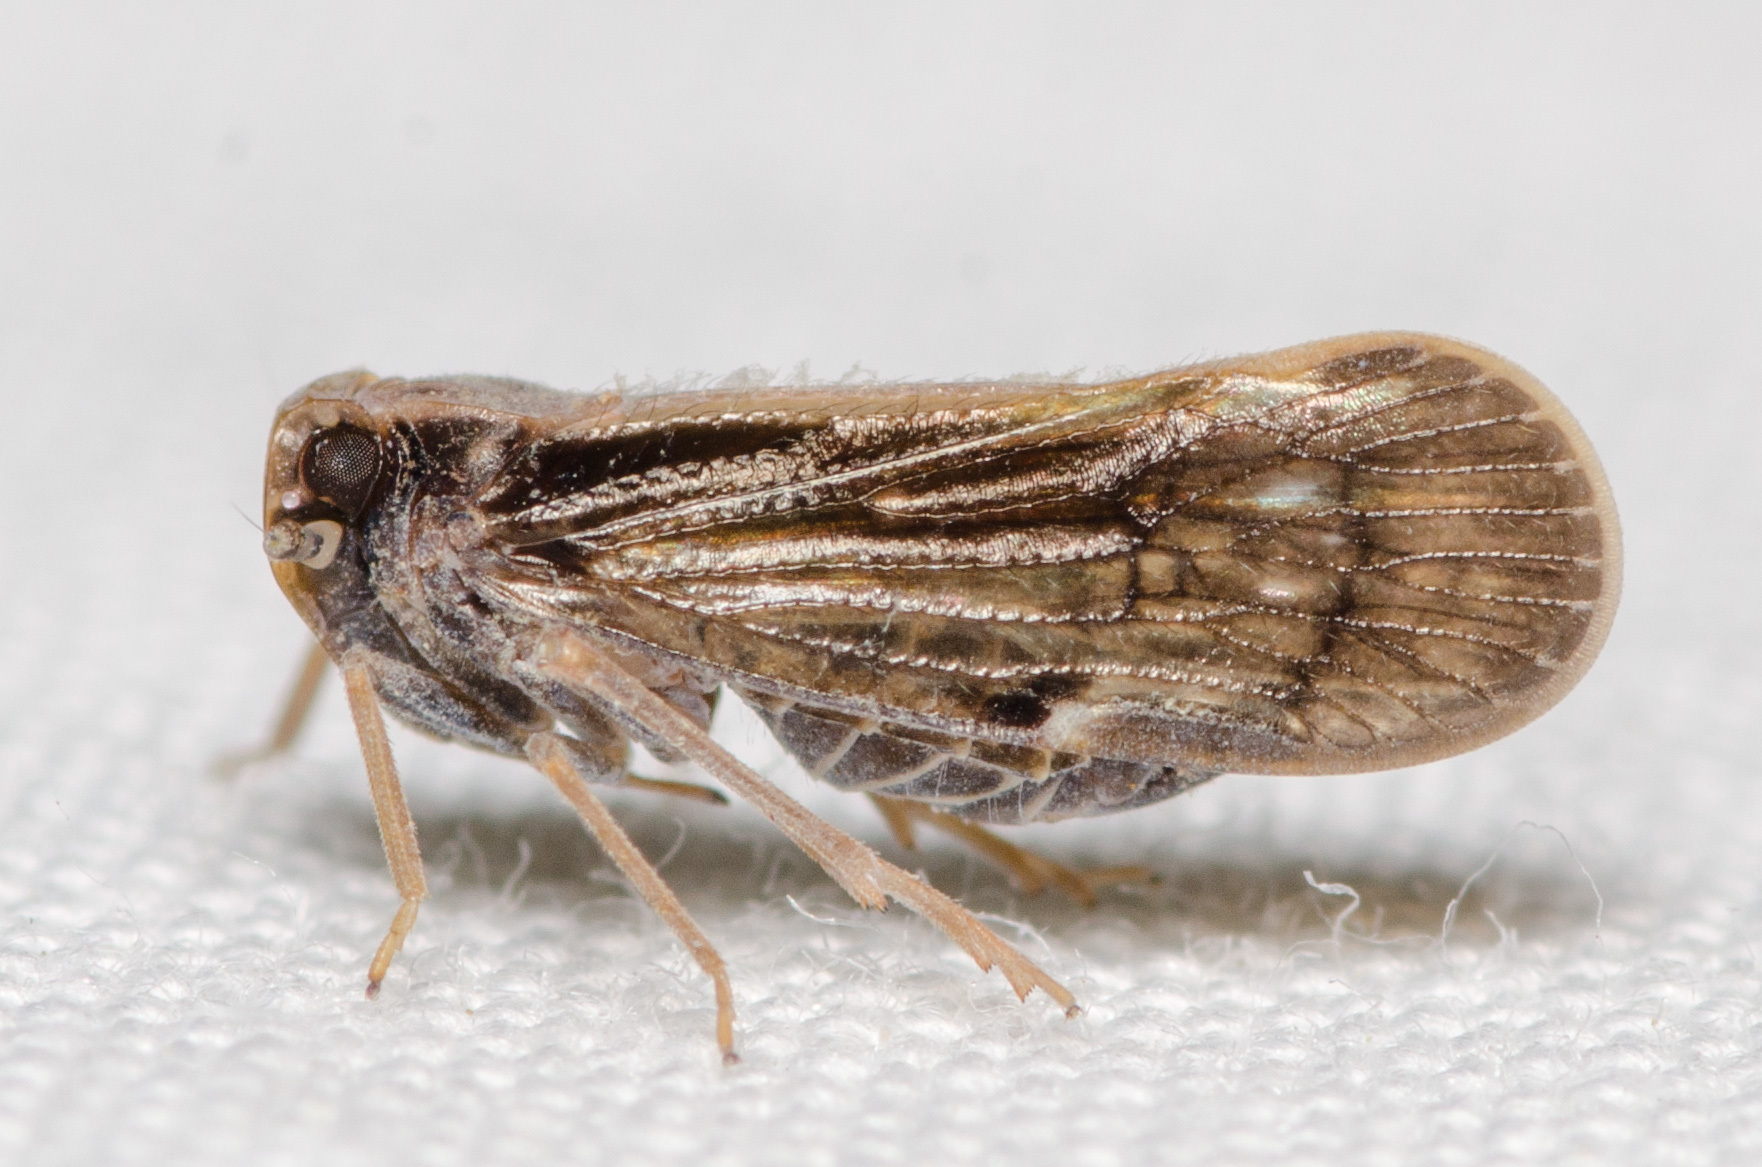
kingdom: Animalia
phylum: Arthropoda
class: Insecta
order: Hemiptera
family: Cixiidae
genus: Pintalia
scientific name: Pintalia delicata
